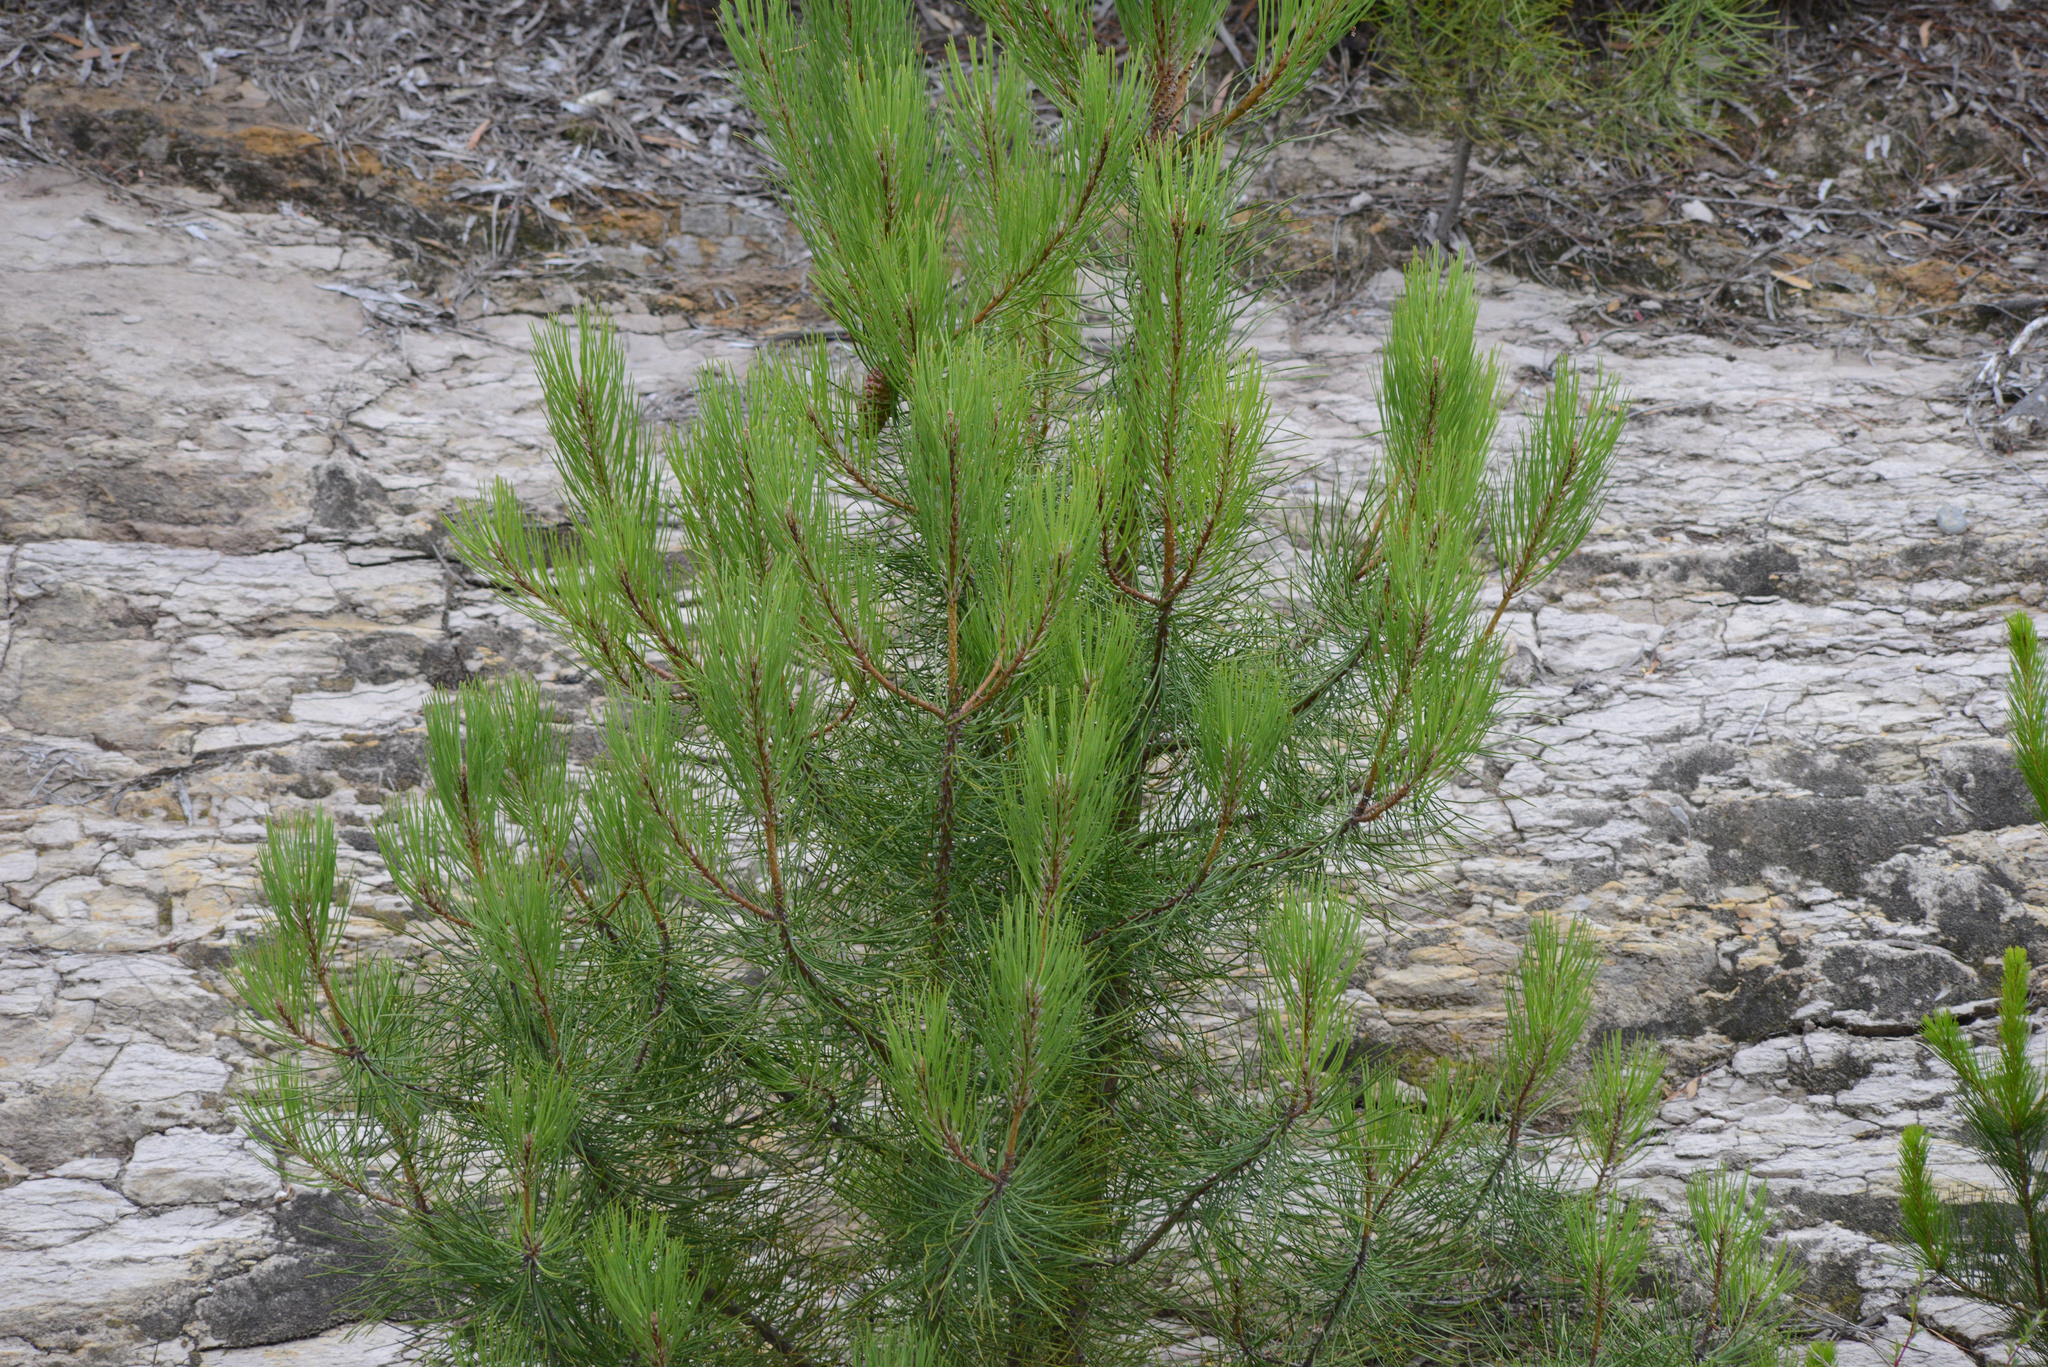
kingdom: Plantae
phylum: Tracheophyta
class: Pinopsida
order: Pinales
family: Pinaceae
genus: Pinus
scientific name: Pinus radiata
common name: Monterey pine
